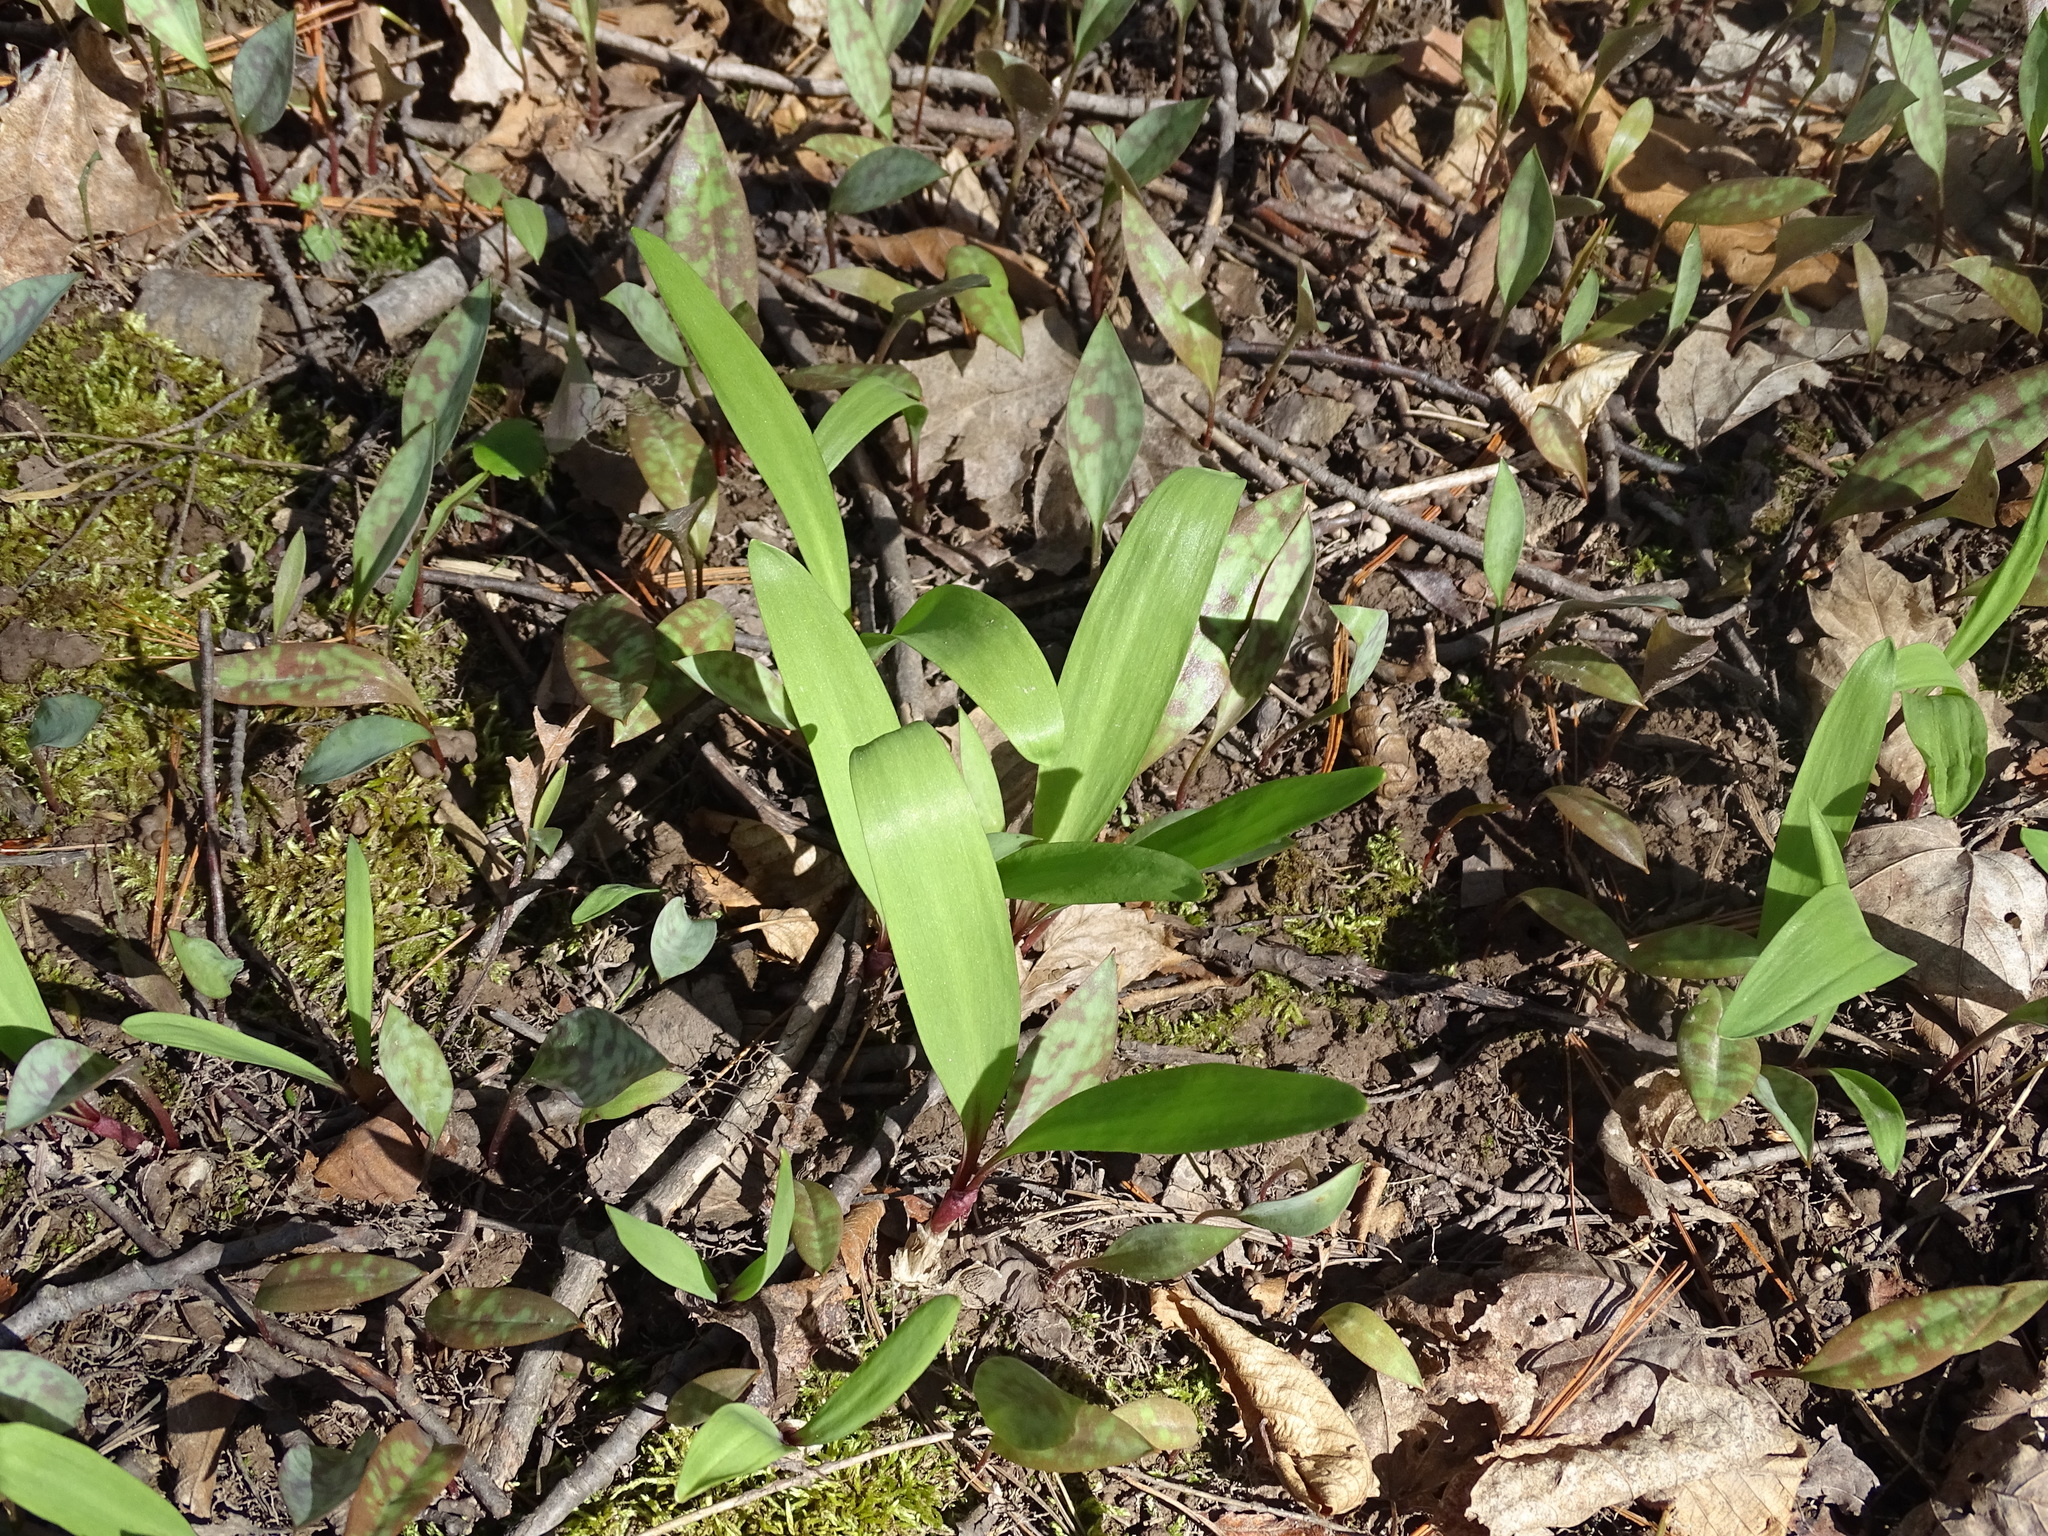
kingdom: Plantae
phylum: Tracheophyta
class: Liliopsida
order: Asparagales
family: Amaryllidaceae
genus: Allium
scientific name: Allium tricoccum
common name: Ramp
